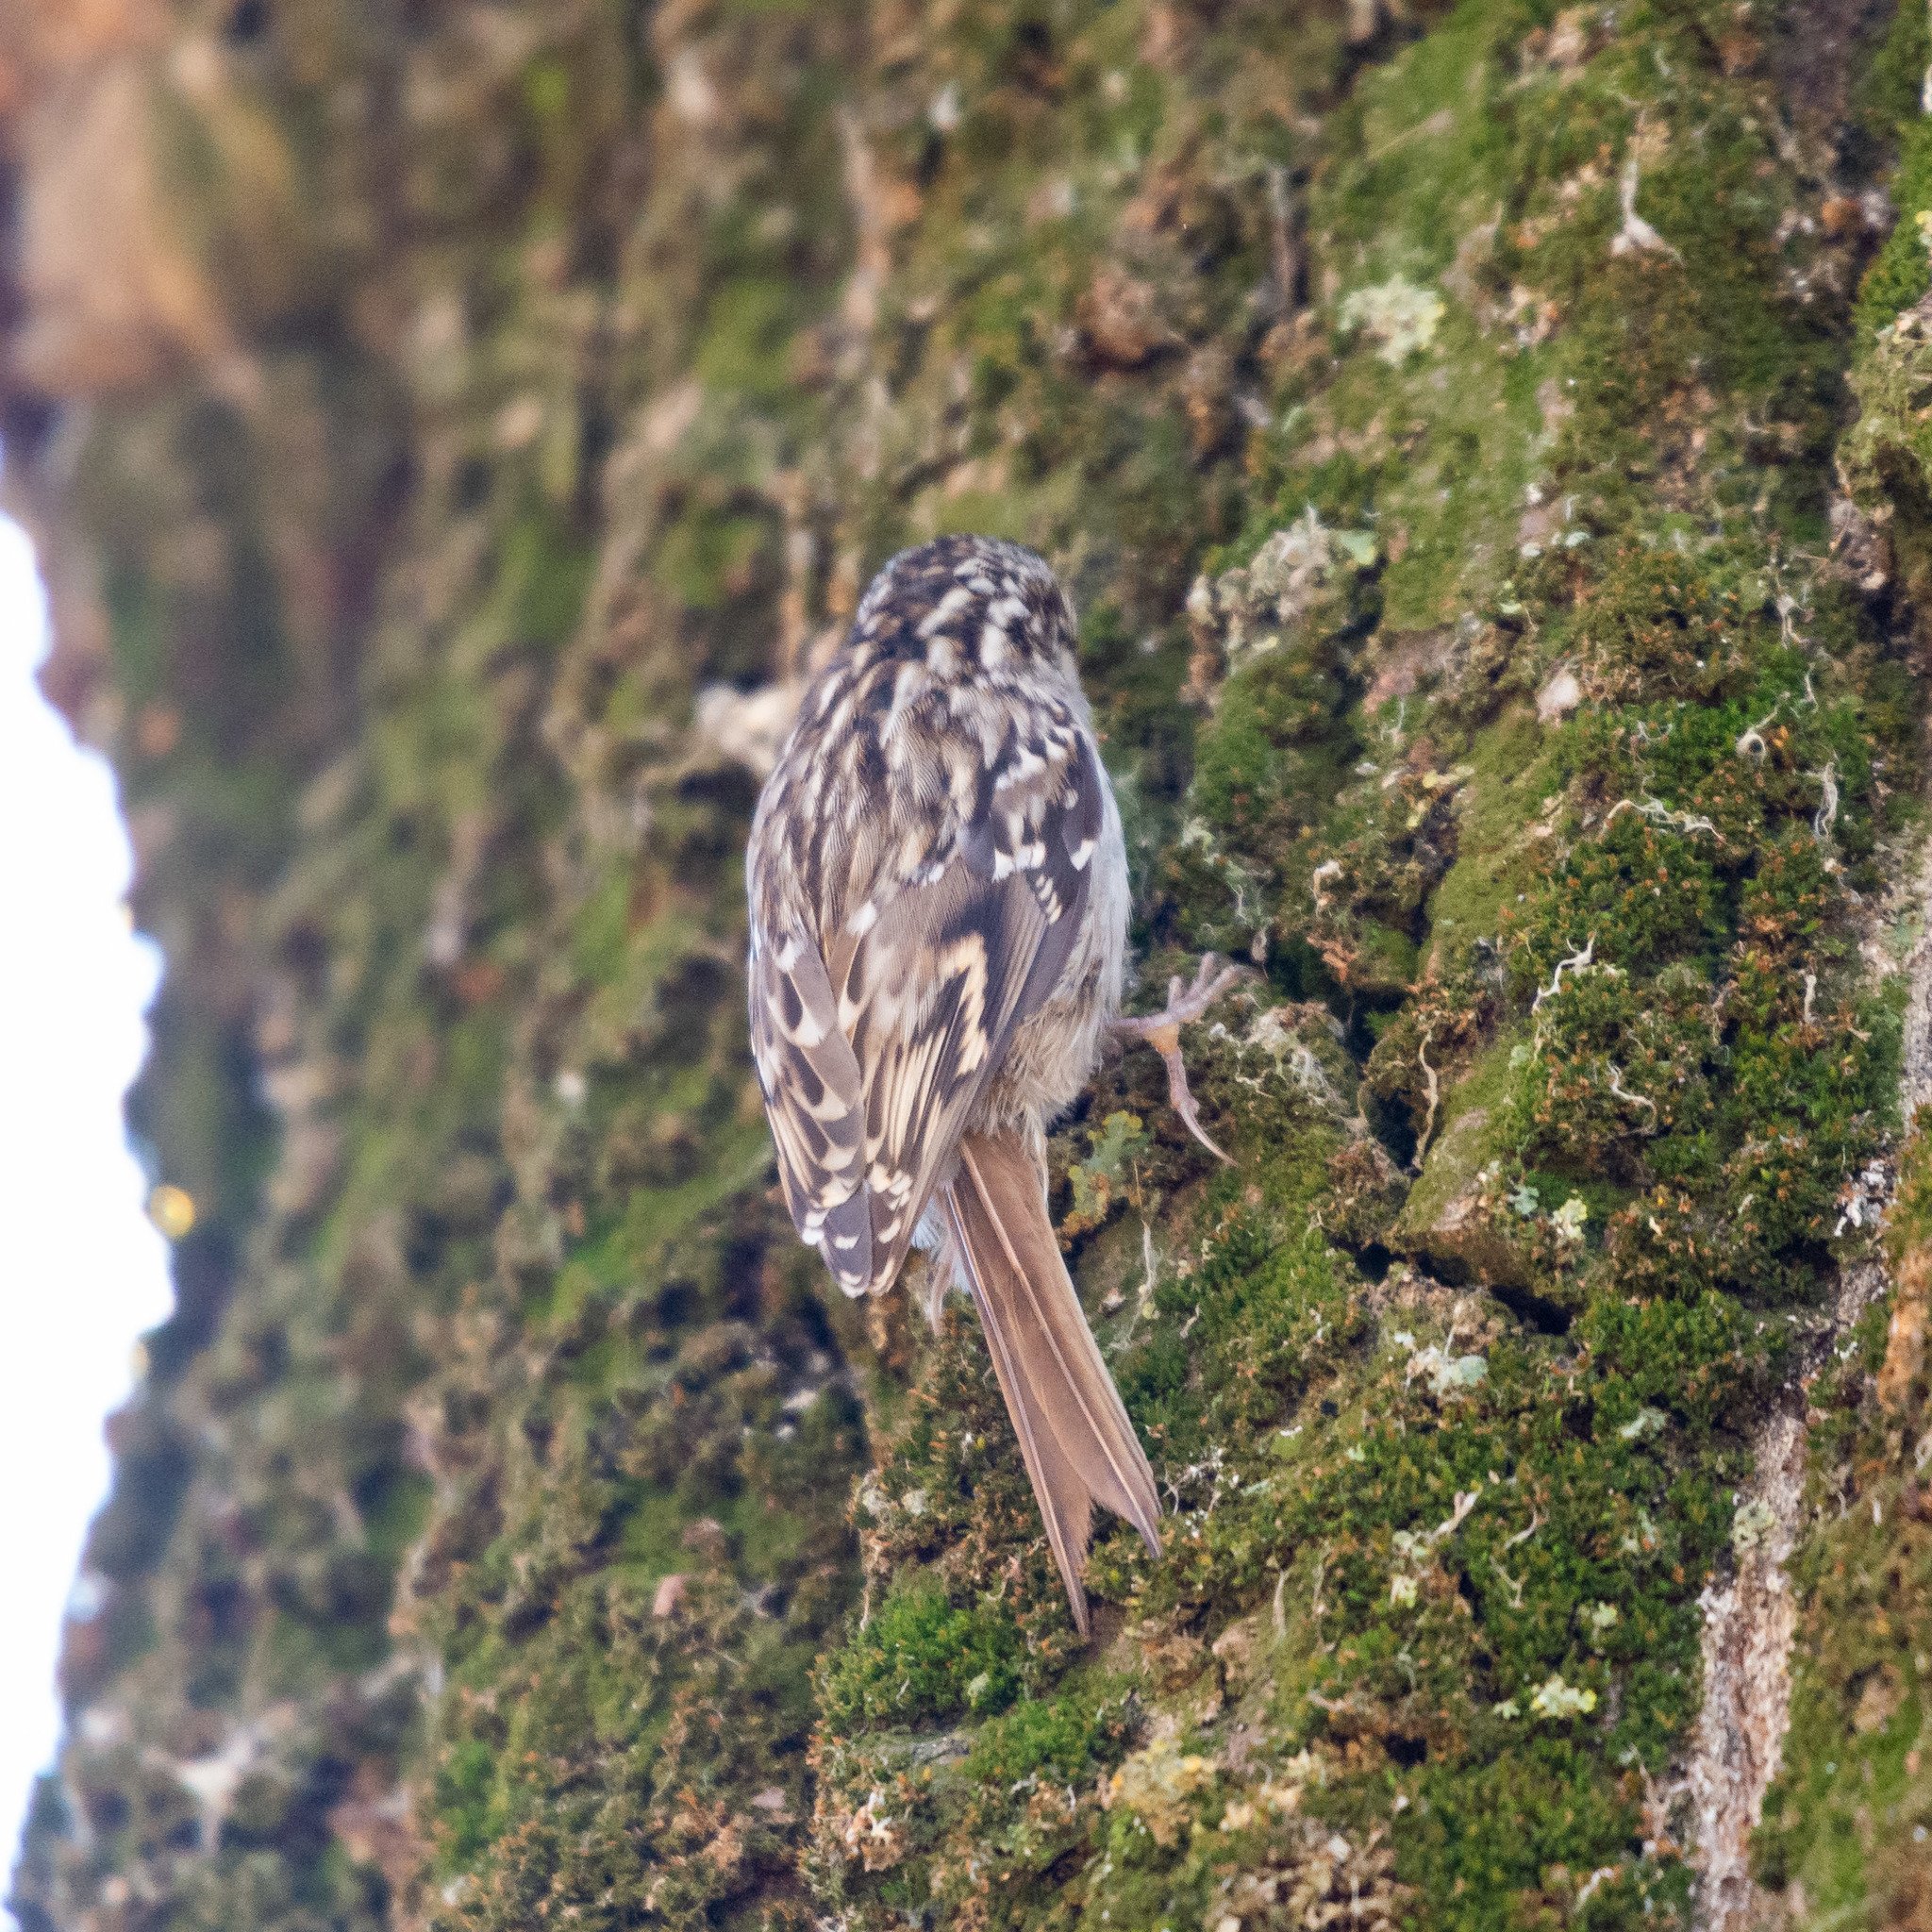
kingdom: Animalia
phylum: Chordata
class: Aves
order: Passeriformes
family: Certhiidae
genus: Certhia
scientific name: Certhia brachydactyla
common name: Short-toed treecreeper
